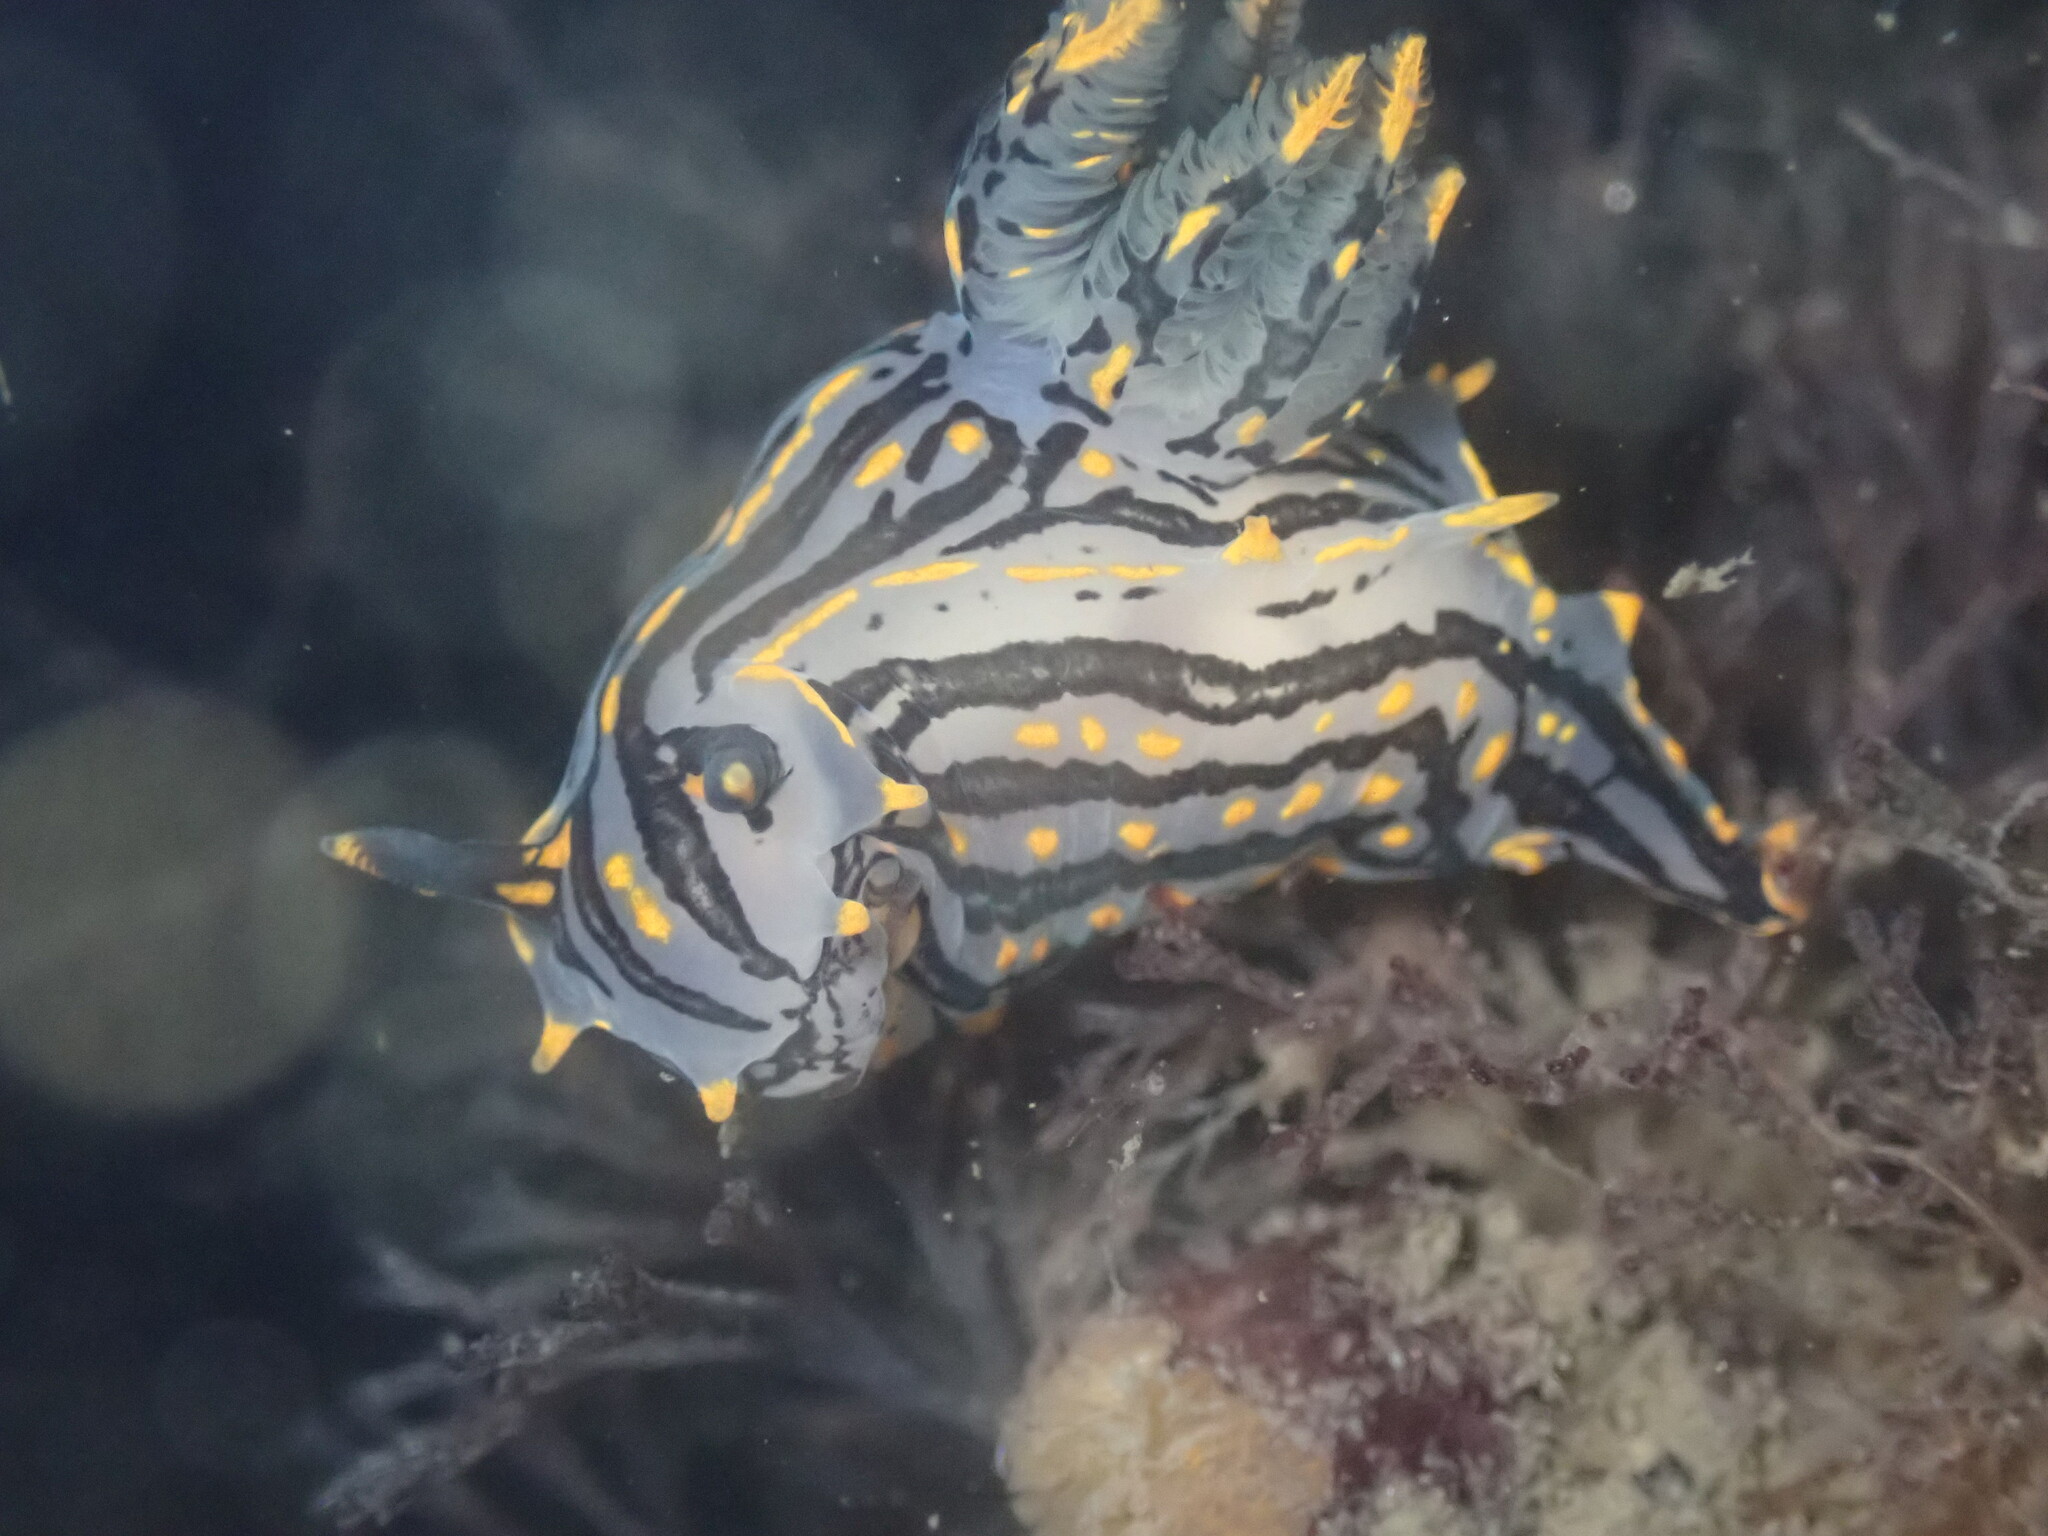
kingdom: Animalia
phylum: Mollusca
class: Gastropoda
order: Nudibranchia
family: Polyceridae
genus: Polycera
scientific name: Polycera atra
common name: Orange-spike polycera
